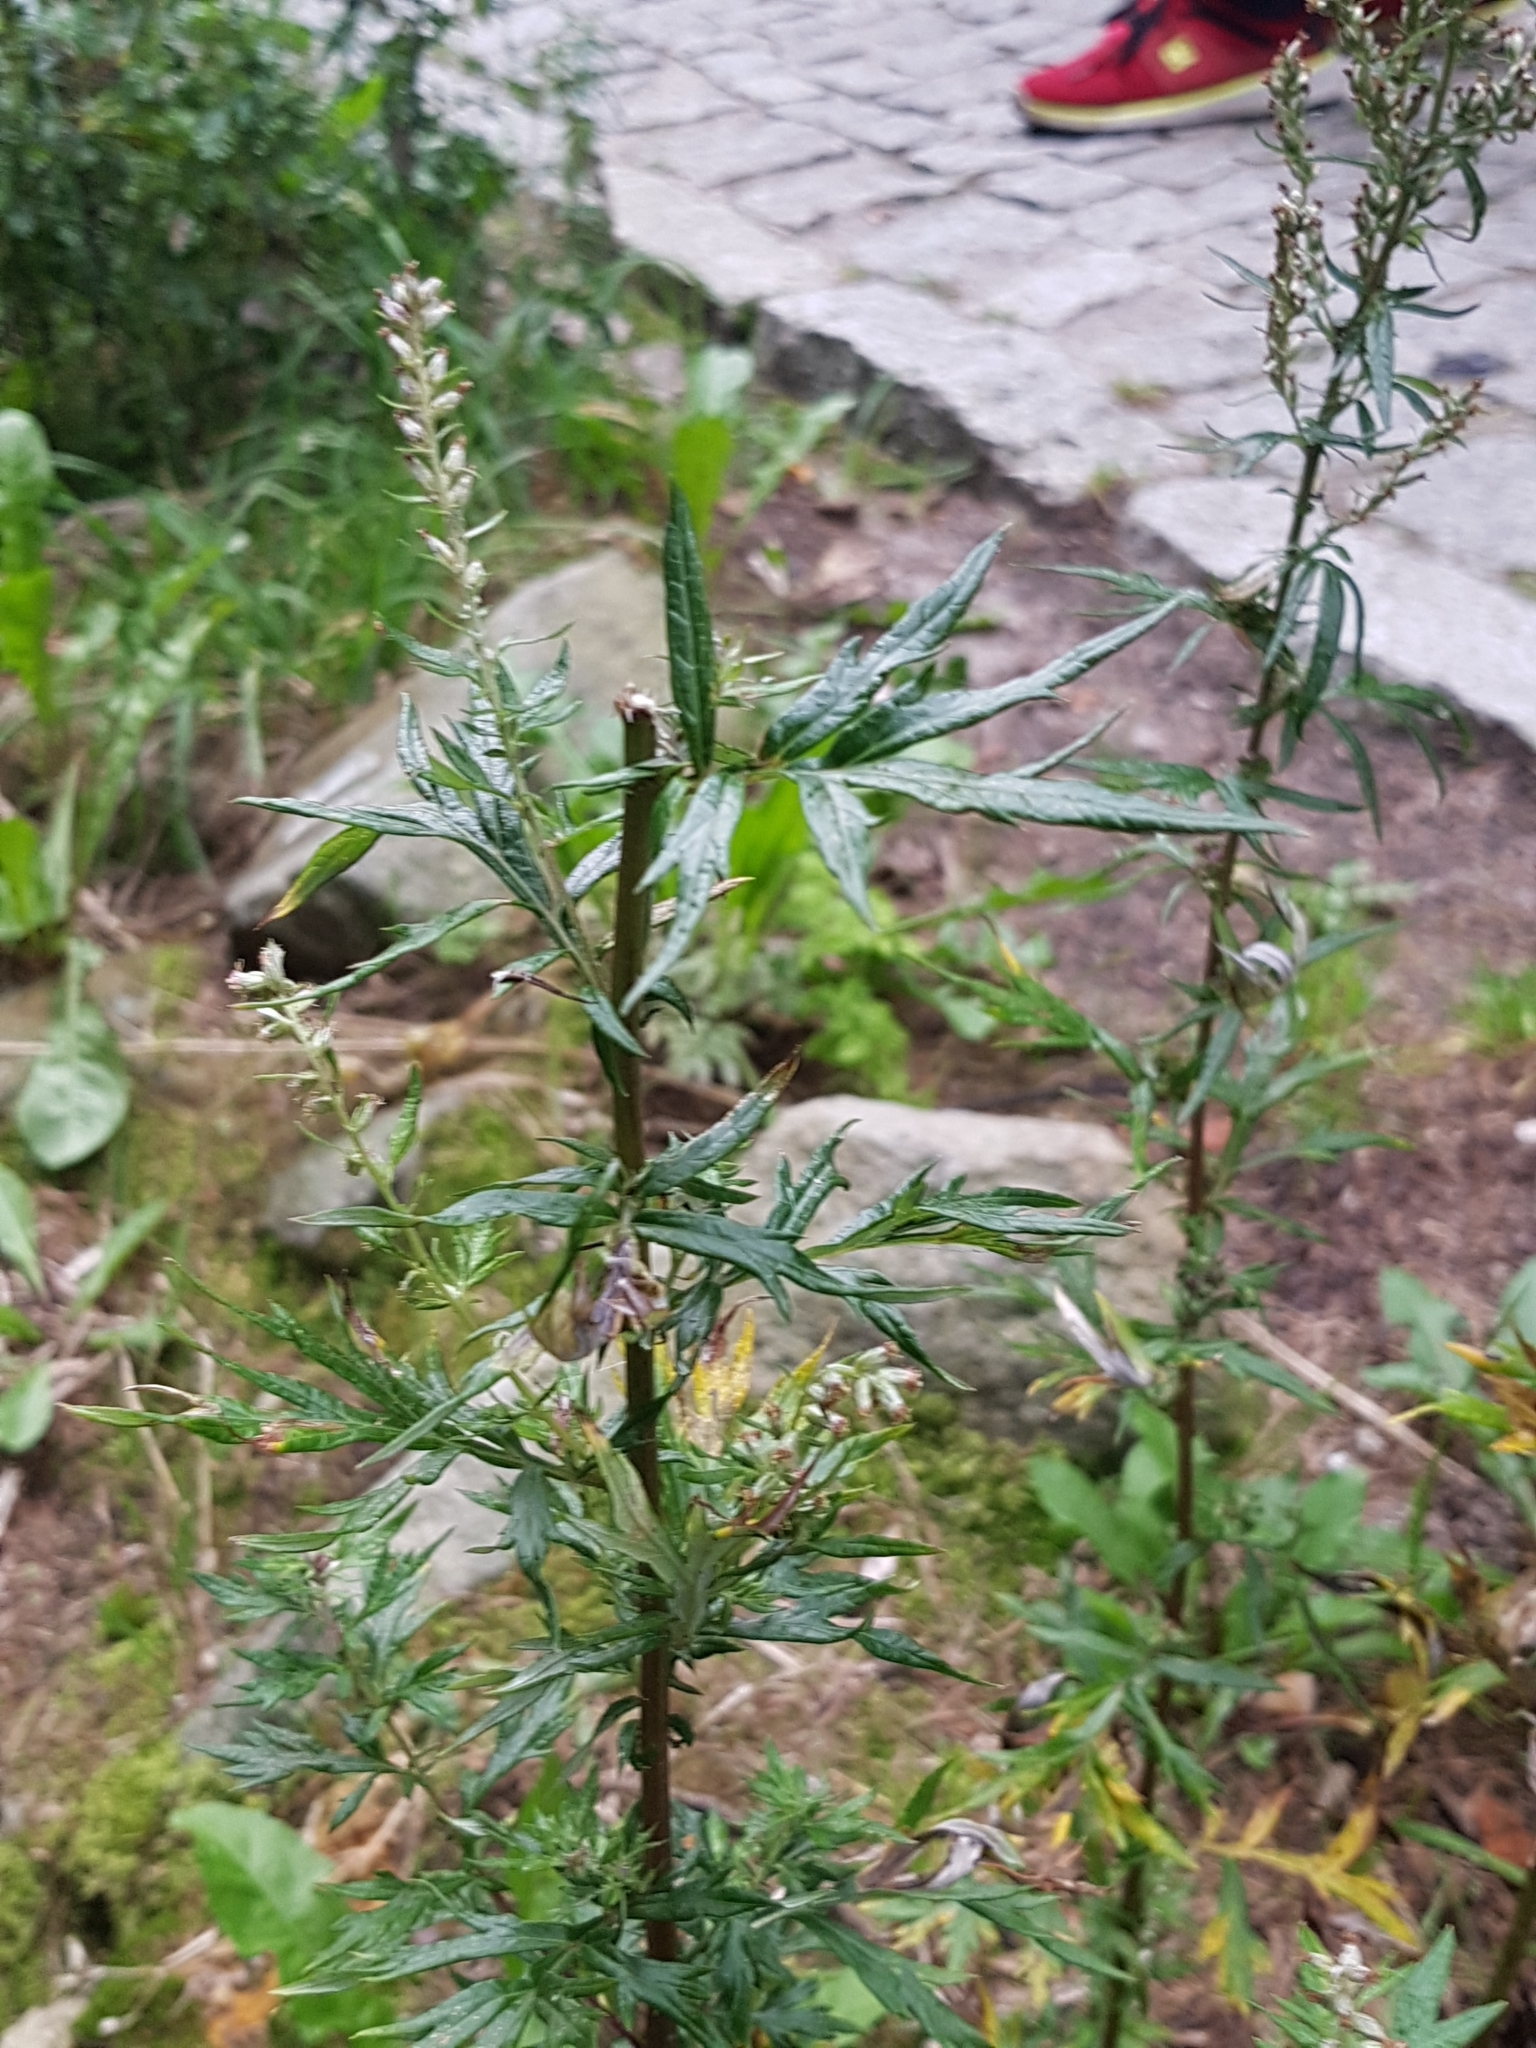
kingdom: Plantae
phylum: Tracheophyta
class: Magnoliopsida
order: Asterales
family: Asteraceae
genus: Artemisia
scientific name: Artemisia vulgaris
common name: Mugwort
